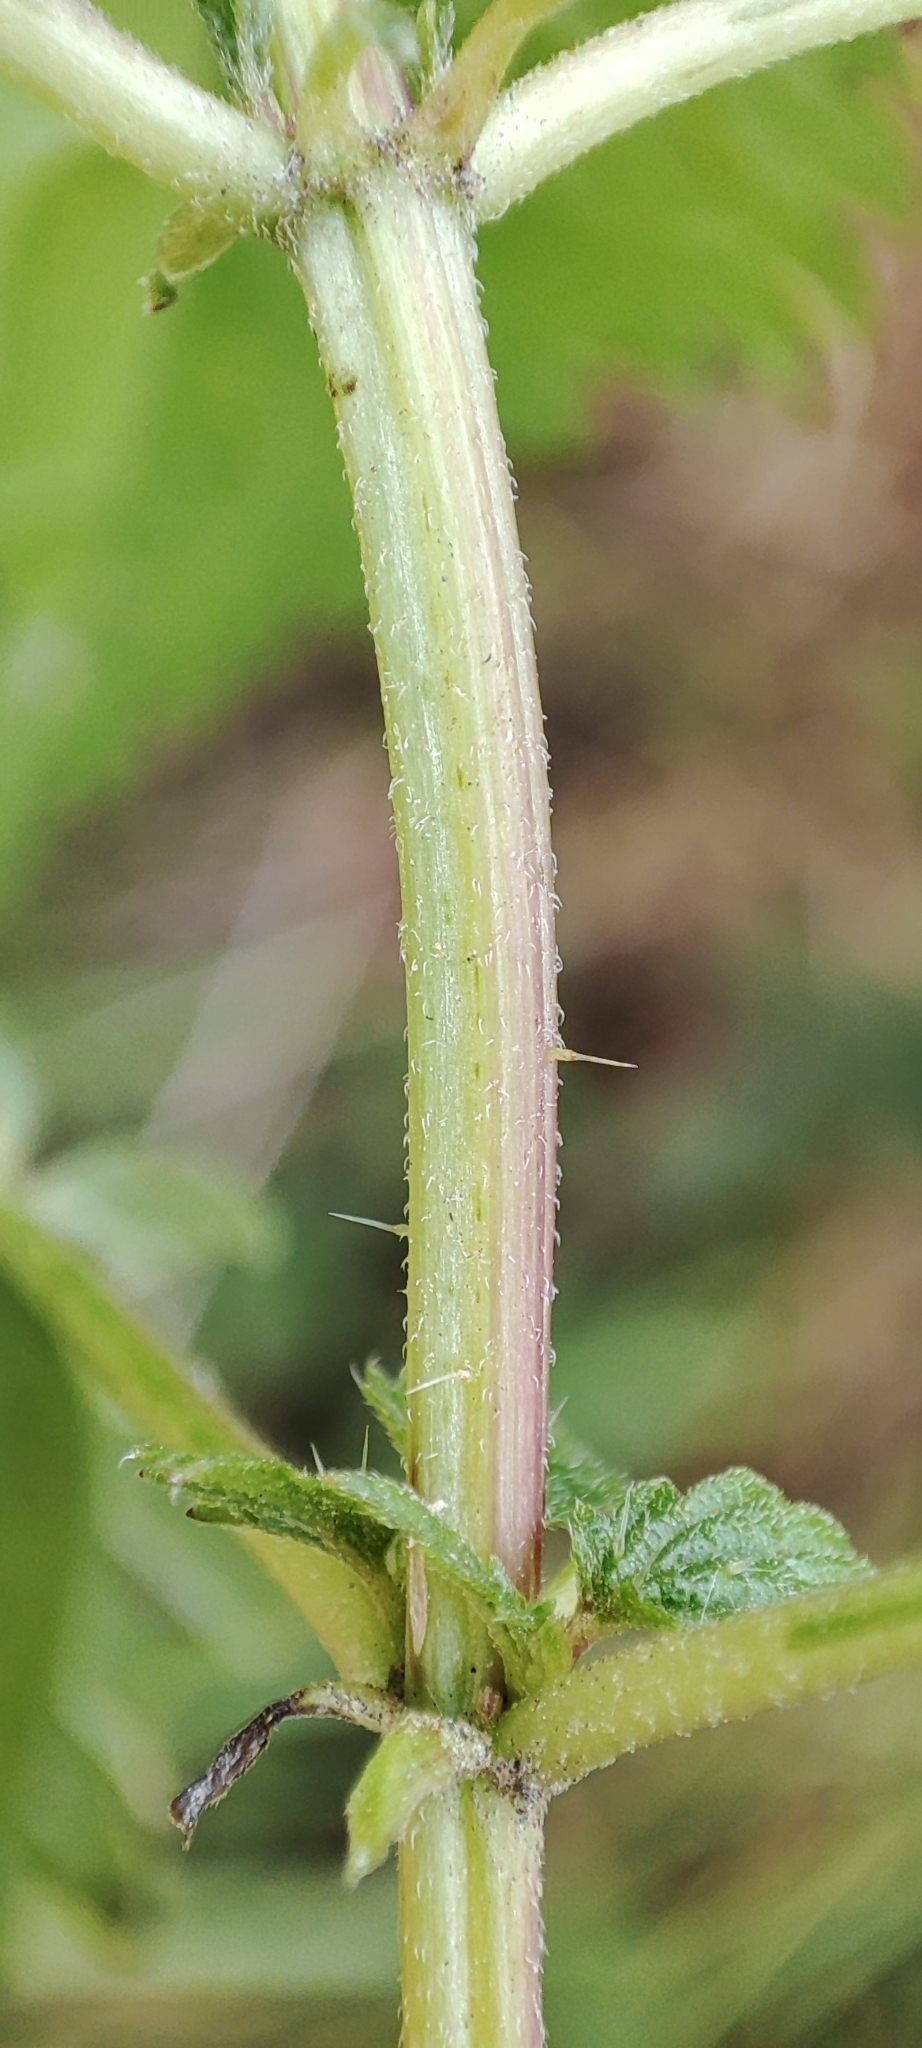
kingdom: Plantae
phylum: Tracheophyta
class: Magnoliopsida
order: Rosales
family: Urticaceae
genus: Urtica
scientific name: Urtica dioica
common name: Common nettle
